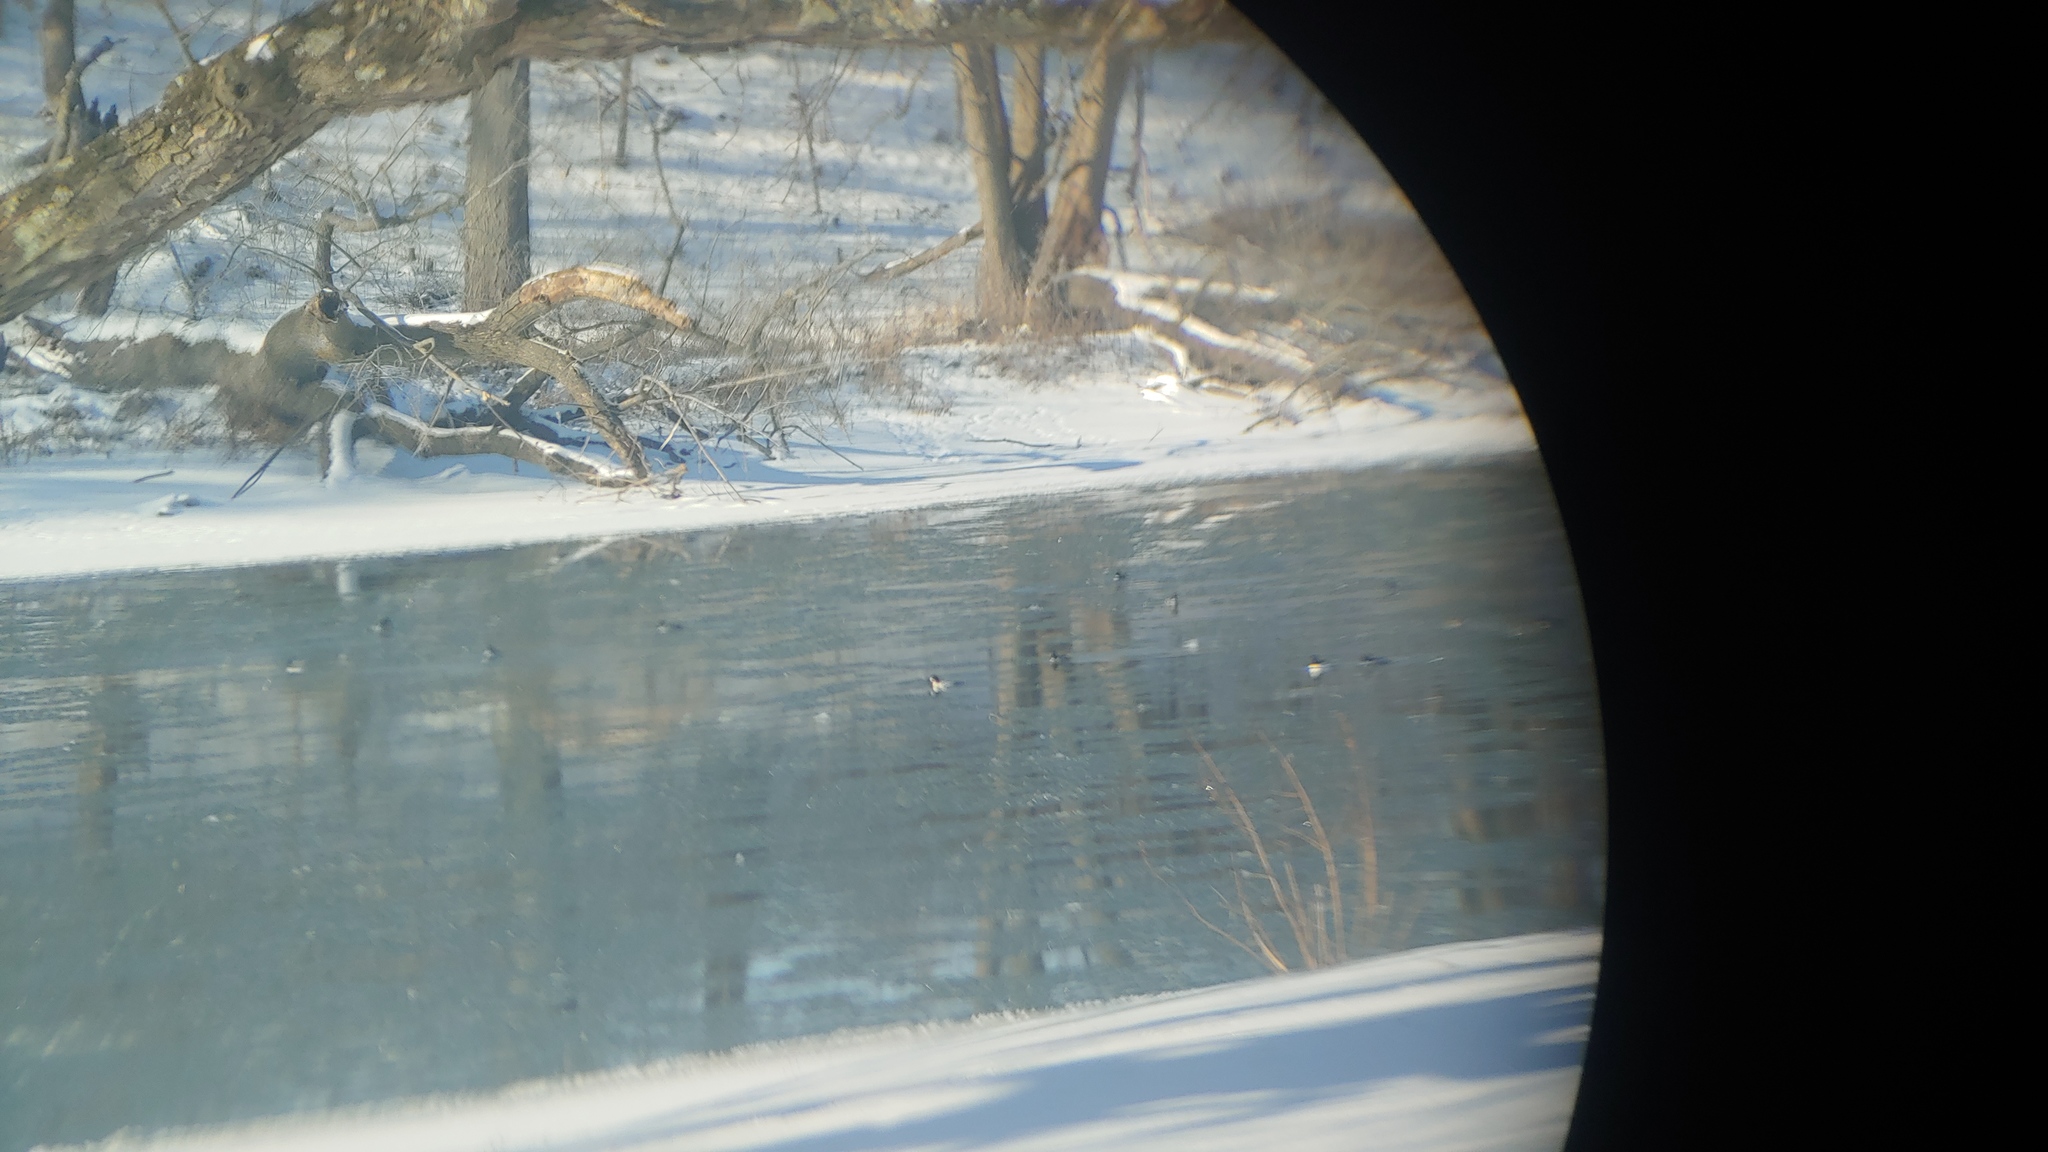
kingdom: Animalia
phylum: Chordata
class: Aves
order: Anseriformes
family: Anatidae
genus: Bucephala
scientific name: Bucephala clangula
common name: Common goldeneye
